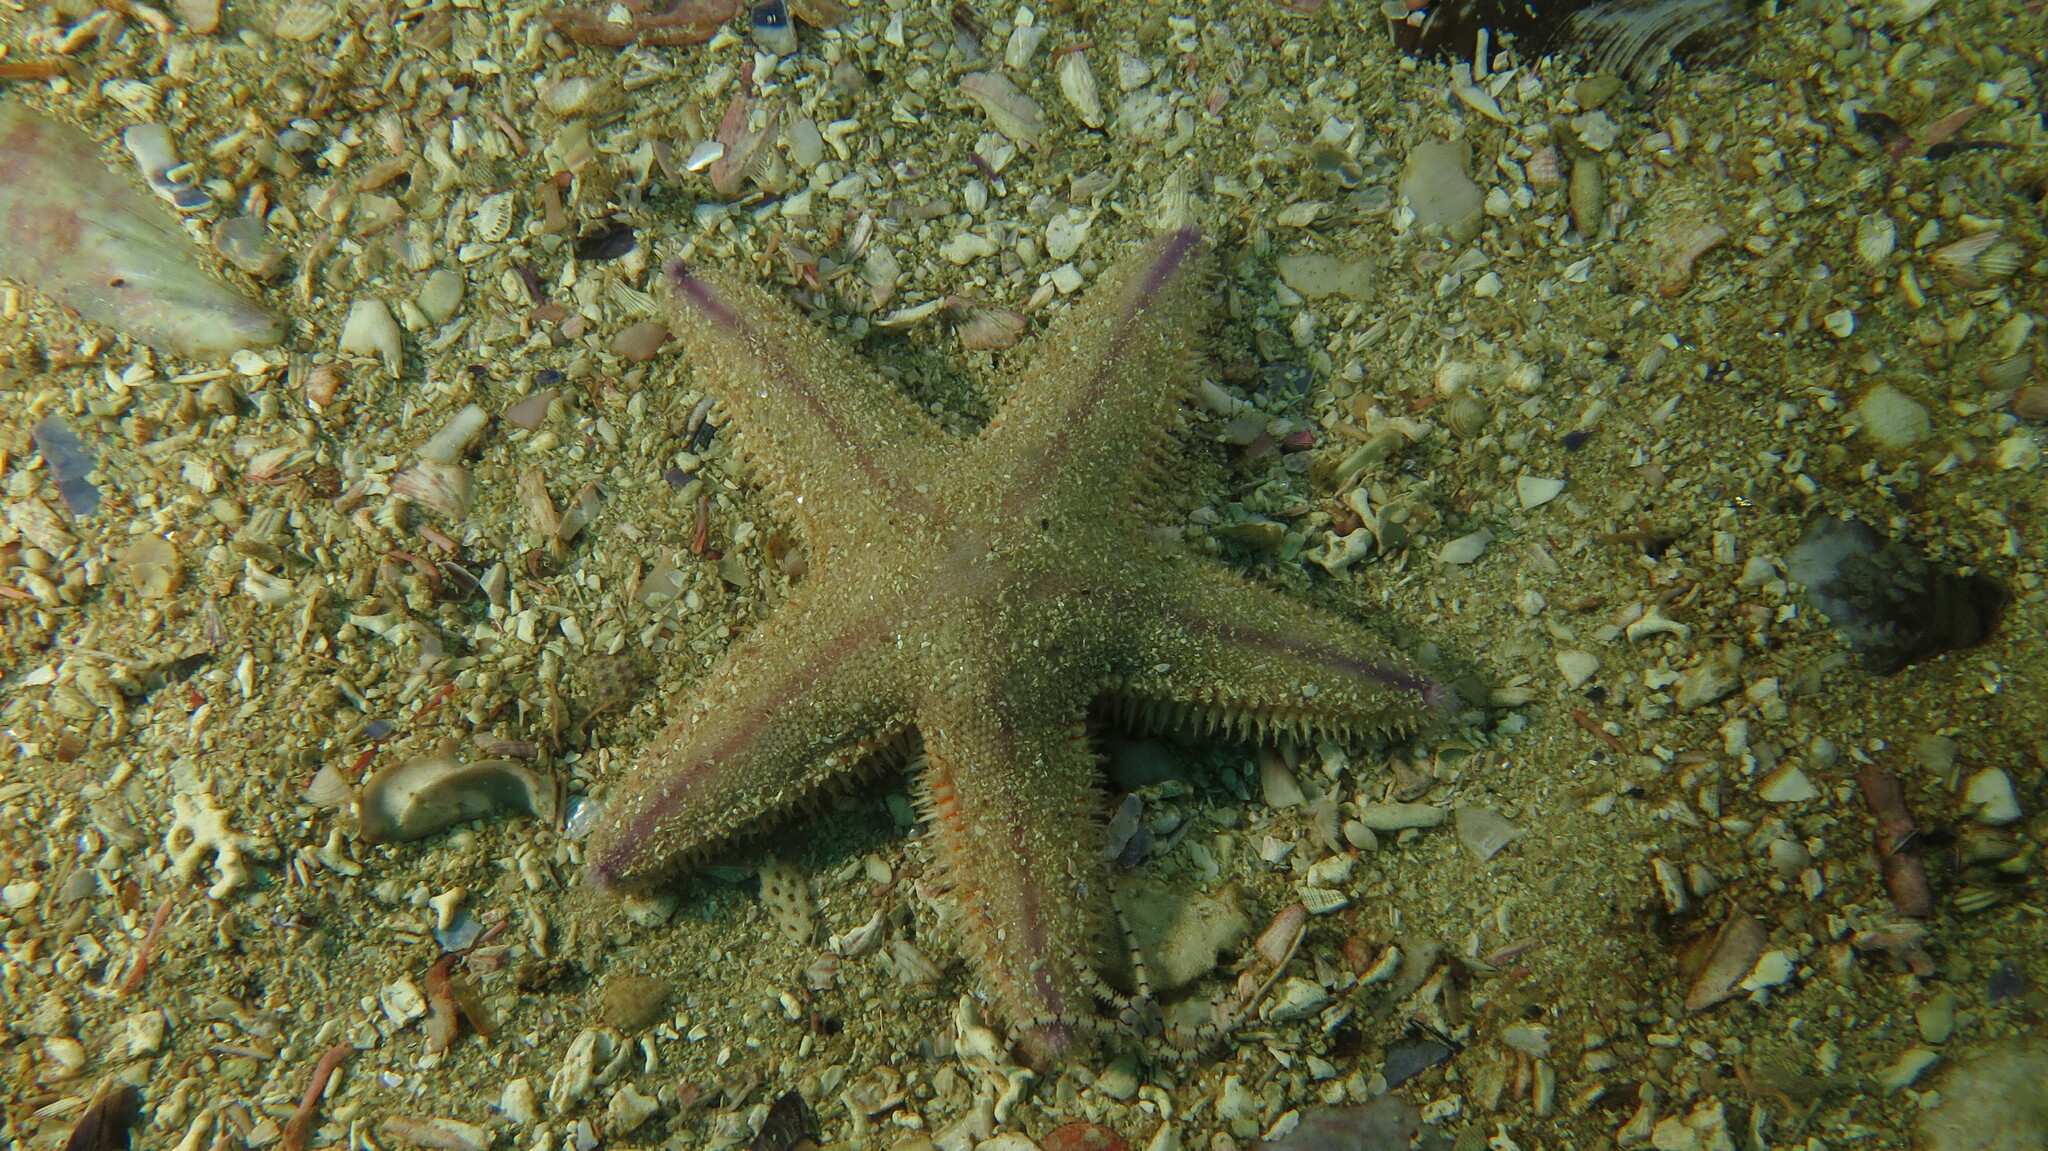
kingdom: Animalia
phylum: Echinodermata
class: Asteroidea
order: Paxillosida
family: Astropectinidae
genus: Astropecten
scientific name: Astropecten irregularis
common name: Sand star
